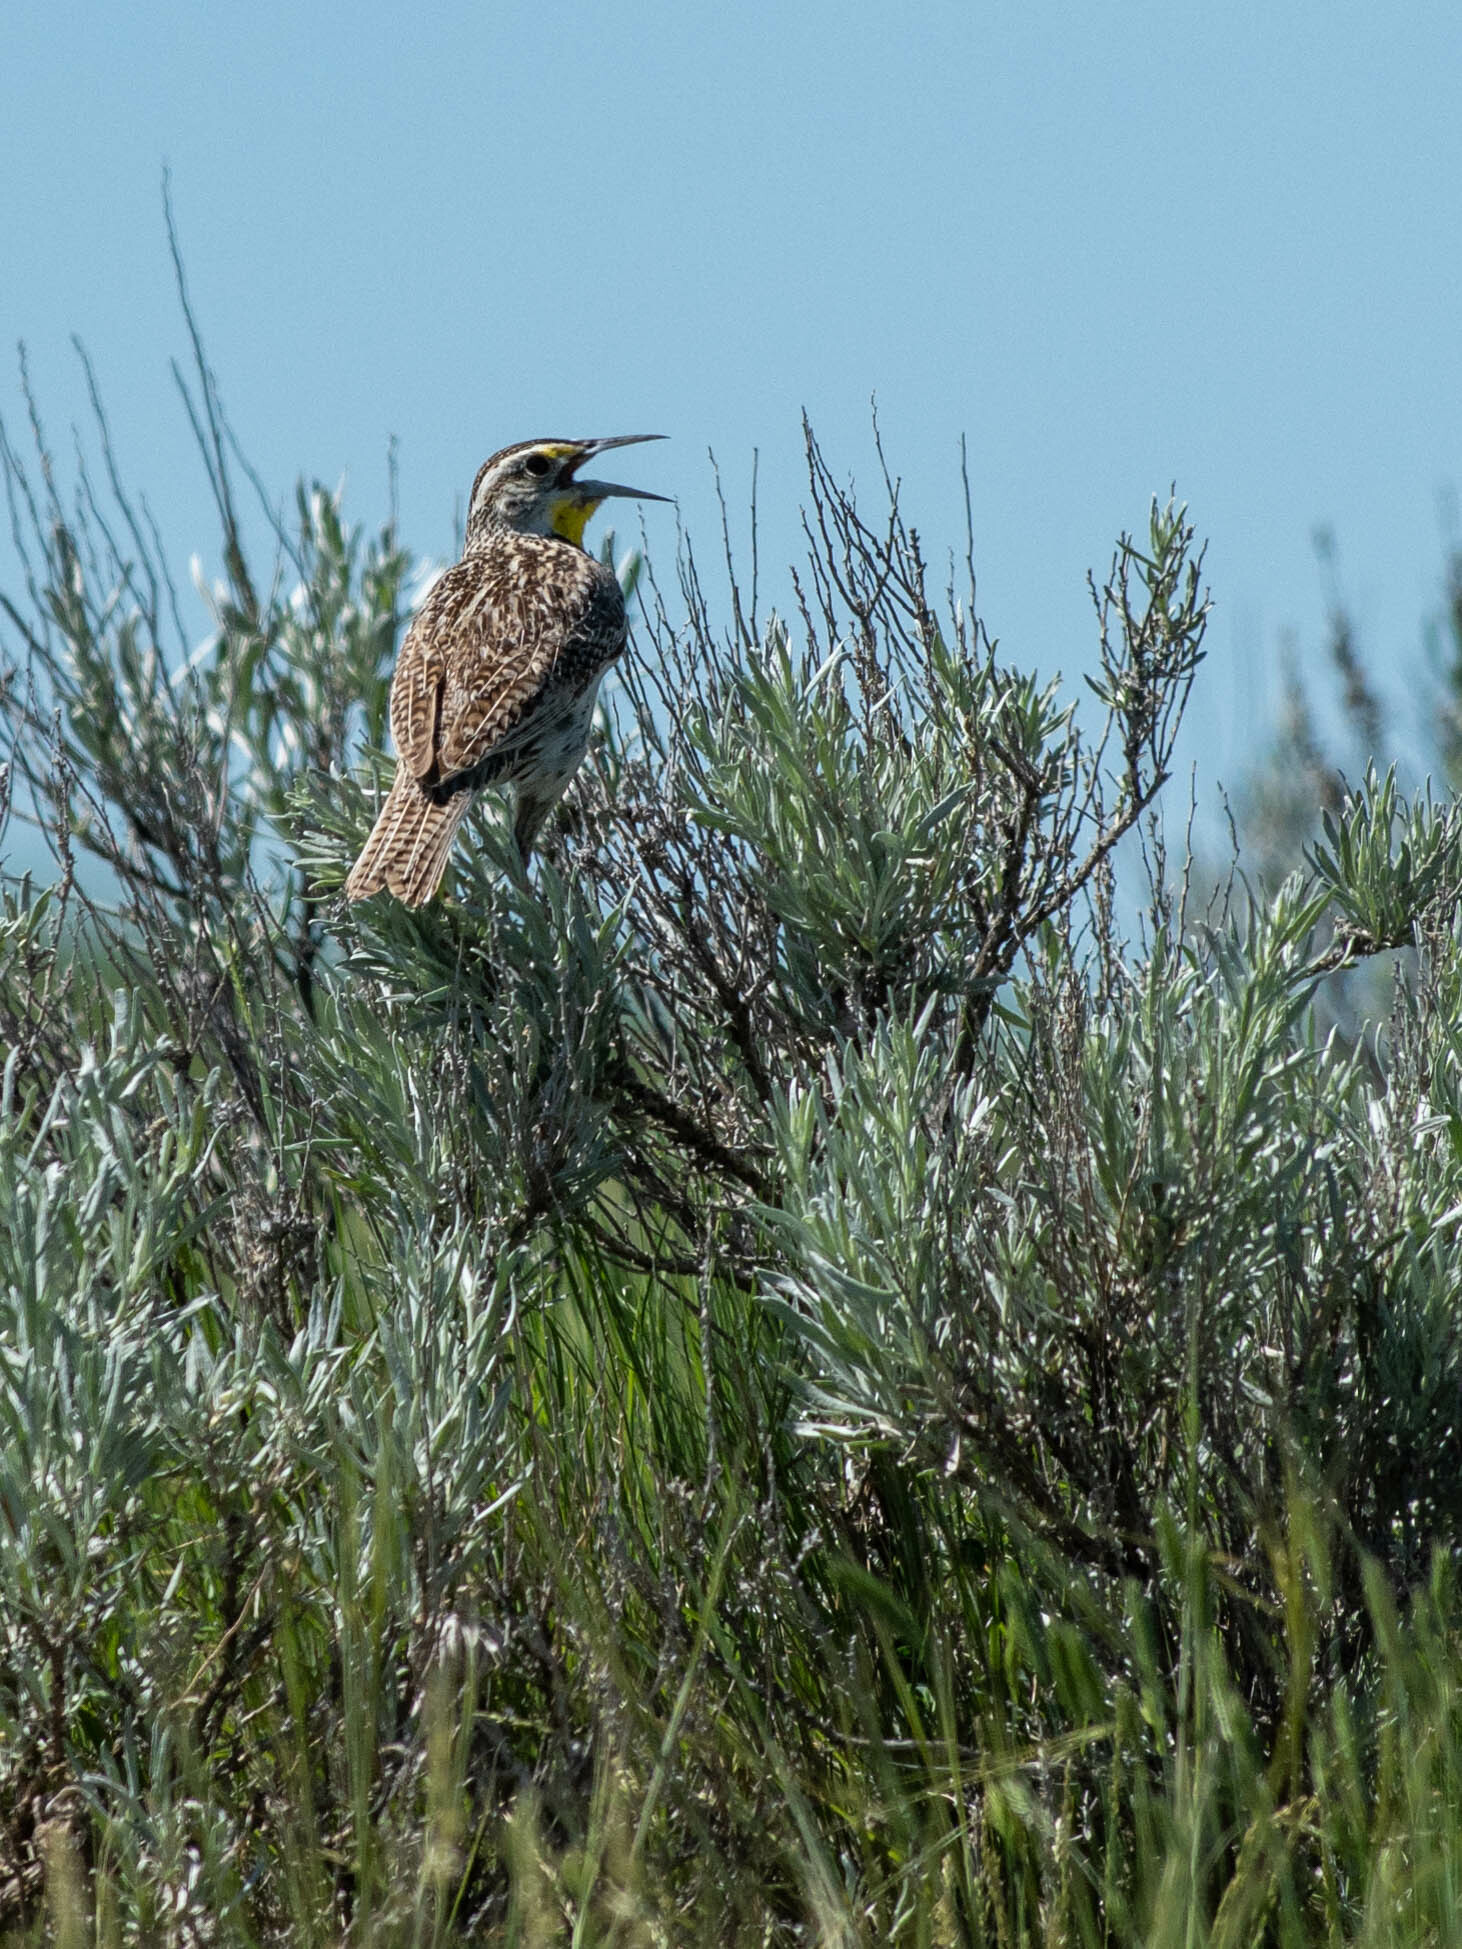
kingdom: Animalia
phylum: Chordata
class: Aves
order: Passeriformes
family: Icteridae
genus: Sturnella
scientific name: Sturnella neglecta
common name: Western meadowlark
